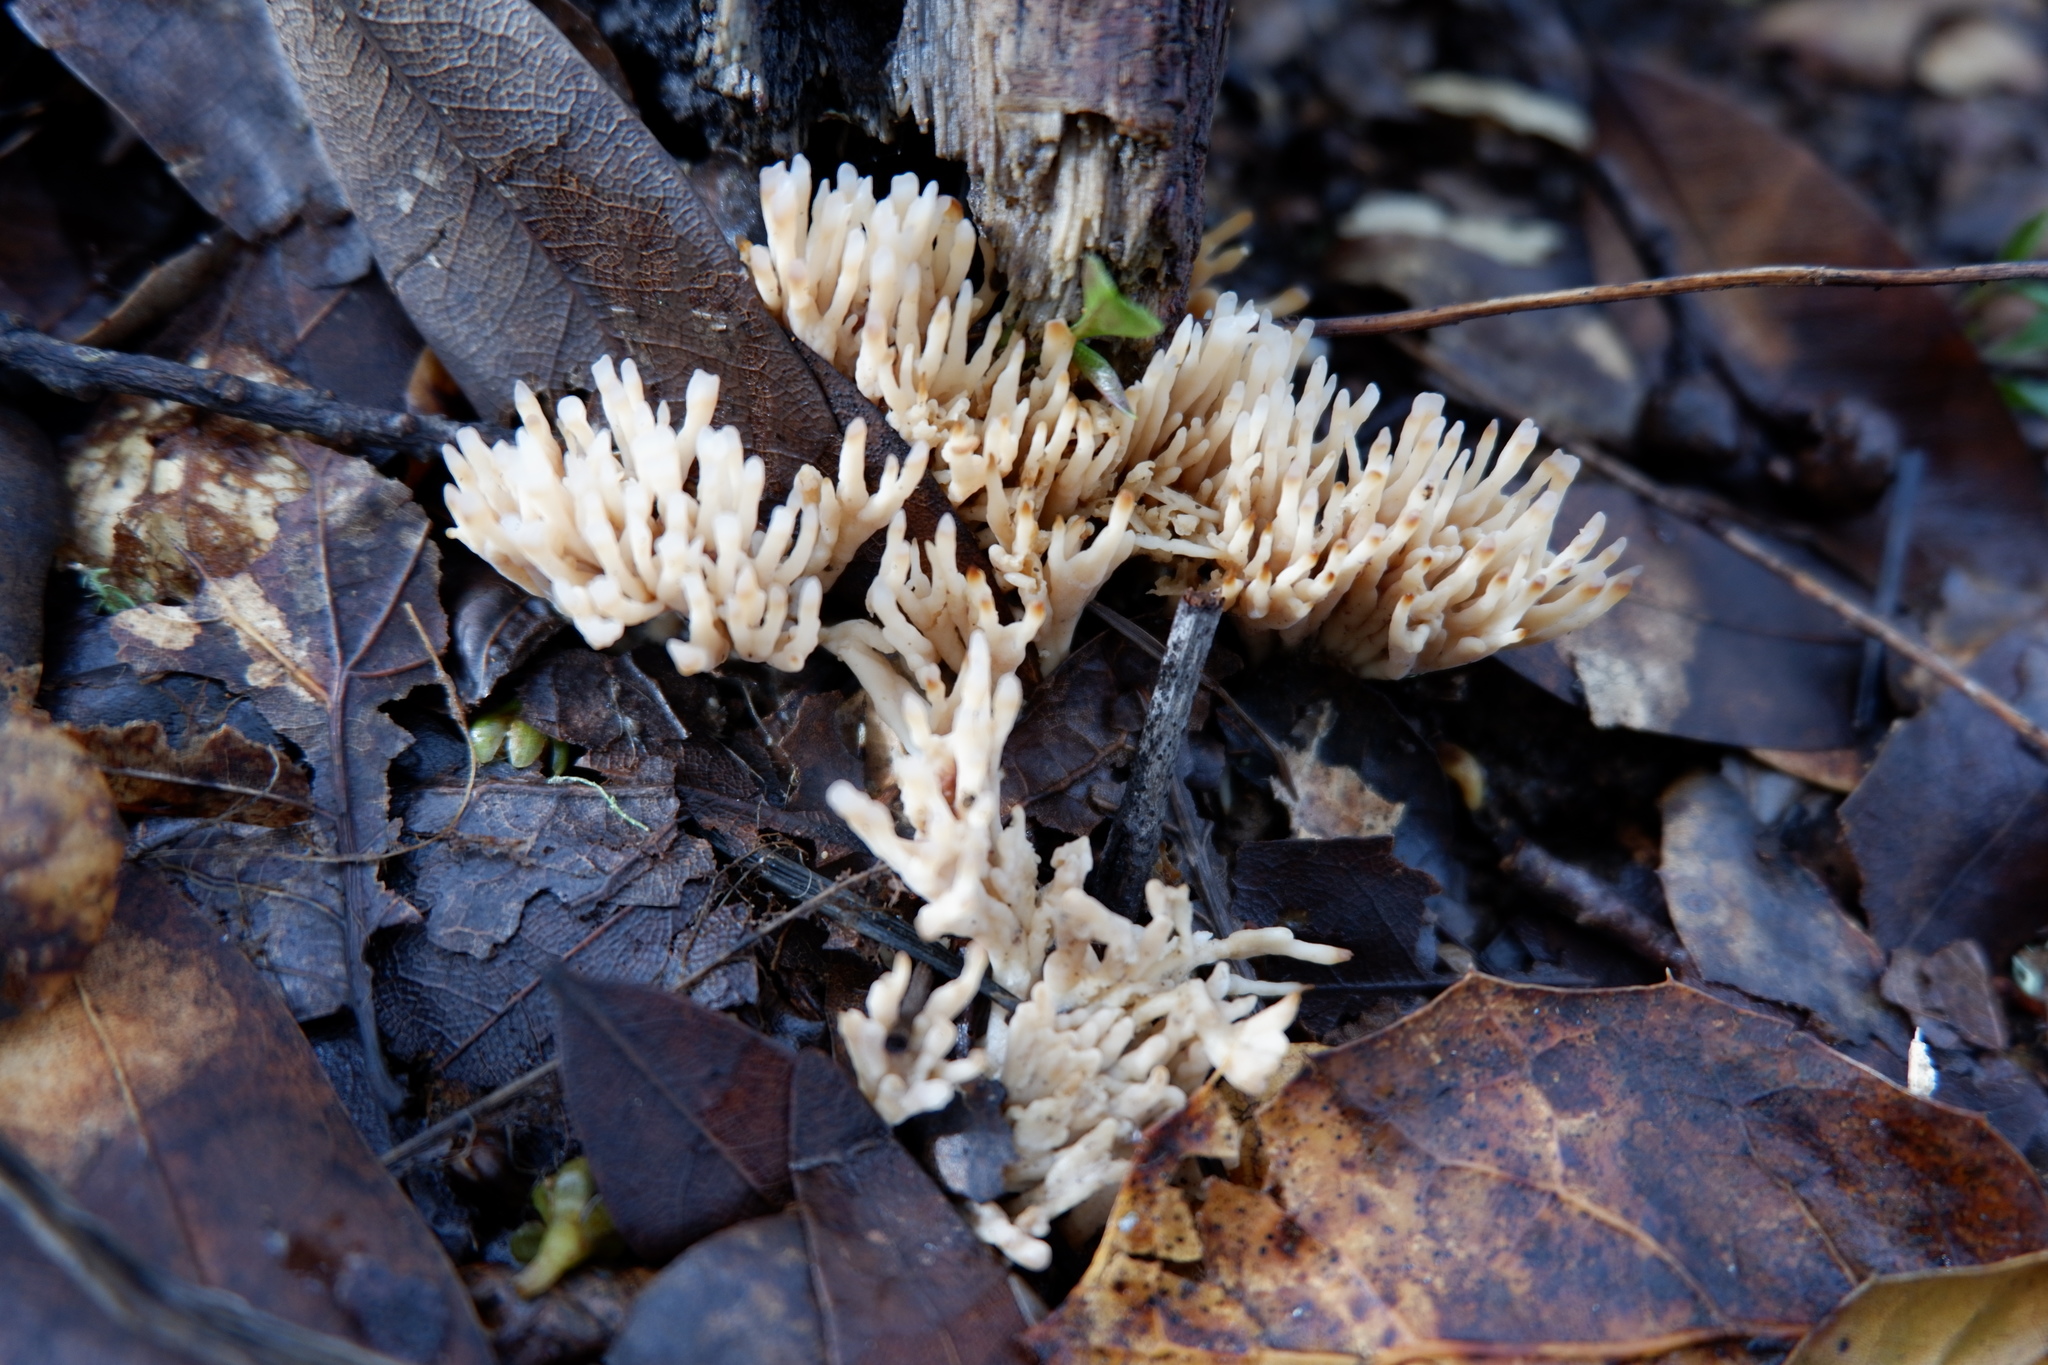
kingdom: Fungi
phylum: Basidiomycota
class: Agaricomycetes
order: Tremellodendropsidales
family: Tremellodendropsidaceae
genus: Tremellodendropsis
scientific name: Tremellodendropsis tuberosa
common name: Ashen coral
